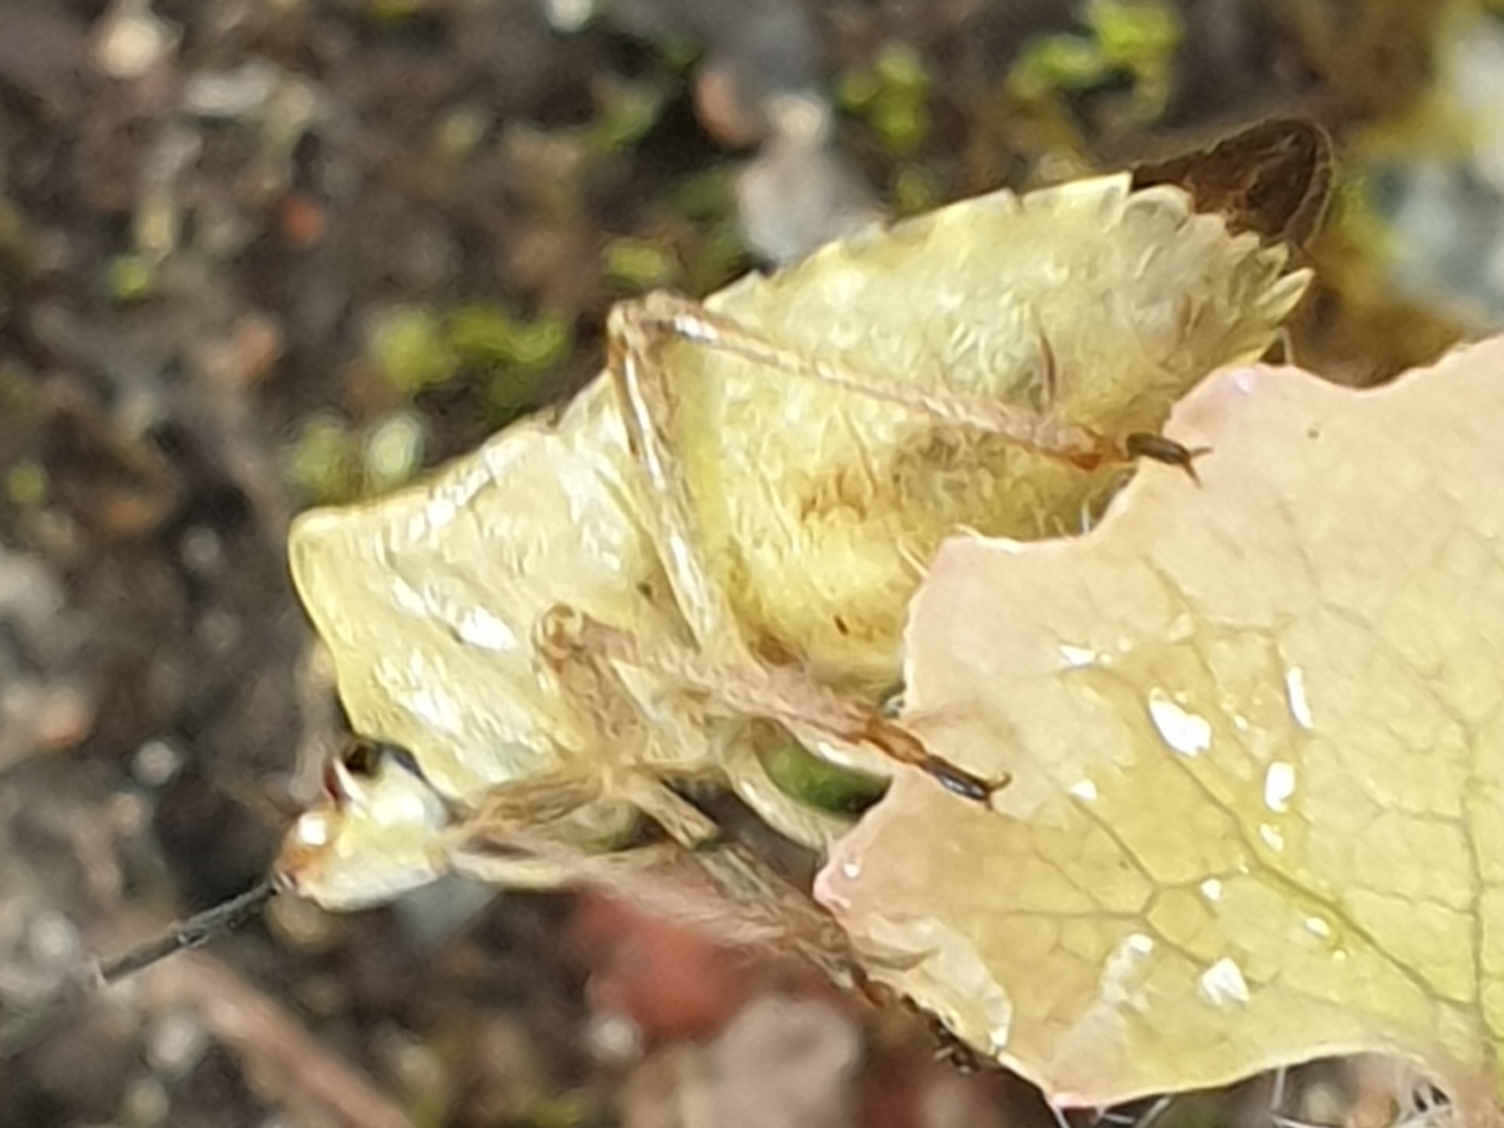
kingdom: Animalia
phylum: Arthropoda
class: Insecta
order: Hemiptera
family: Pentatomidae
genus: Carpocoris
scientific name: Carpocoris purpureipennis
